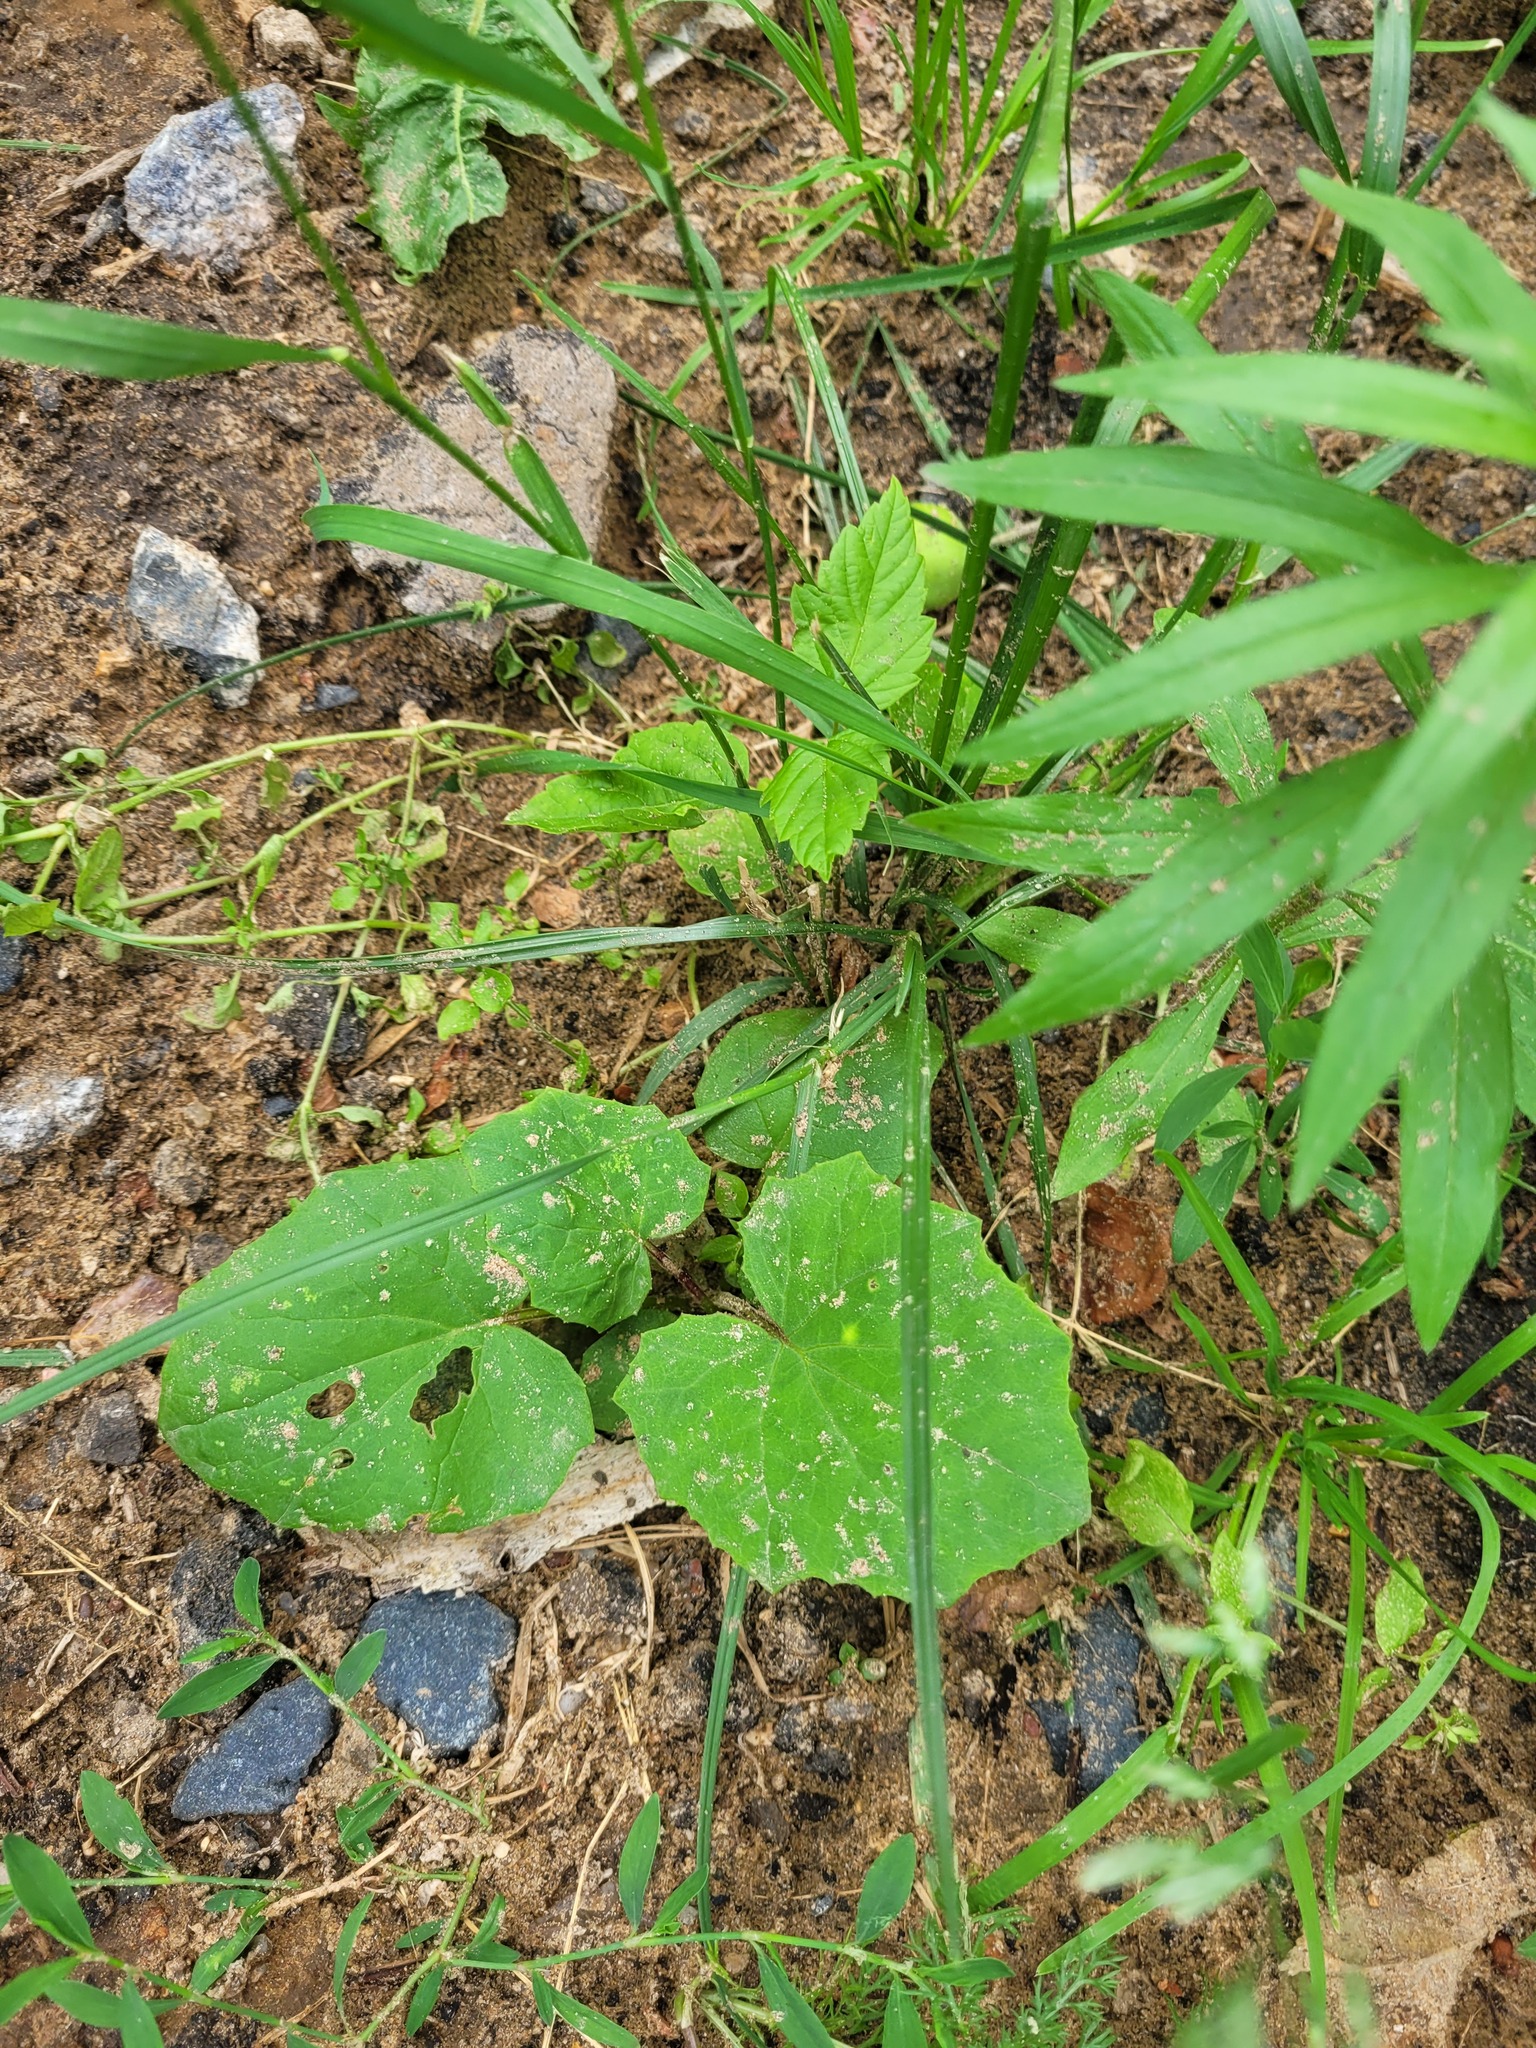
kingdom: Plantae
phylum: Tracheophyta
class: Magnoliopsida
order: Asterales
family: Asteraceae
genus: Tussilago
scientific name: Tussilago farfara
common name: Coltsfoot
